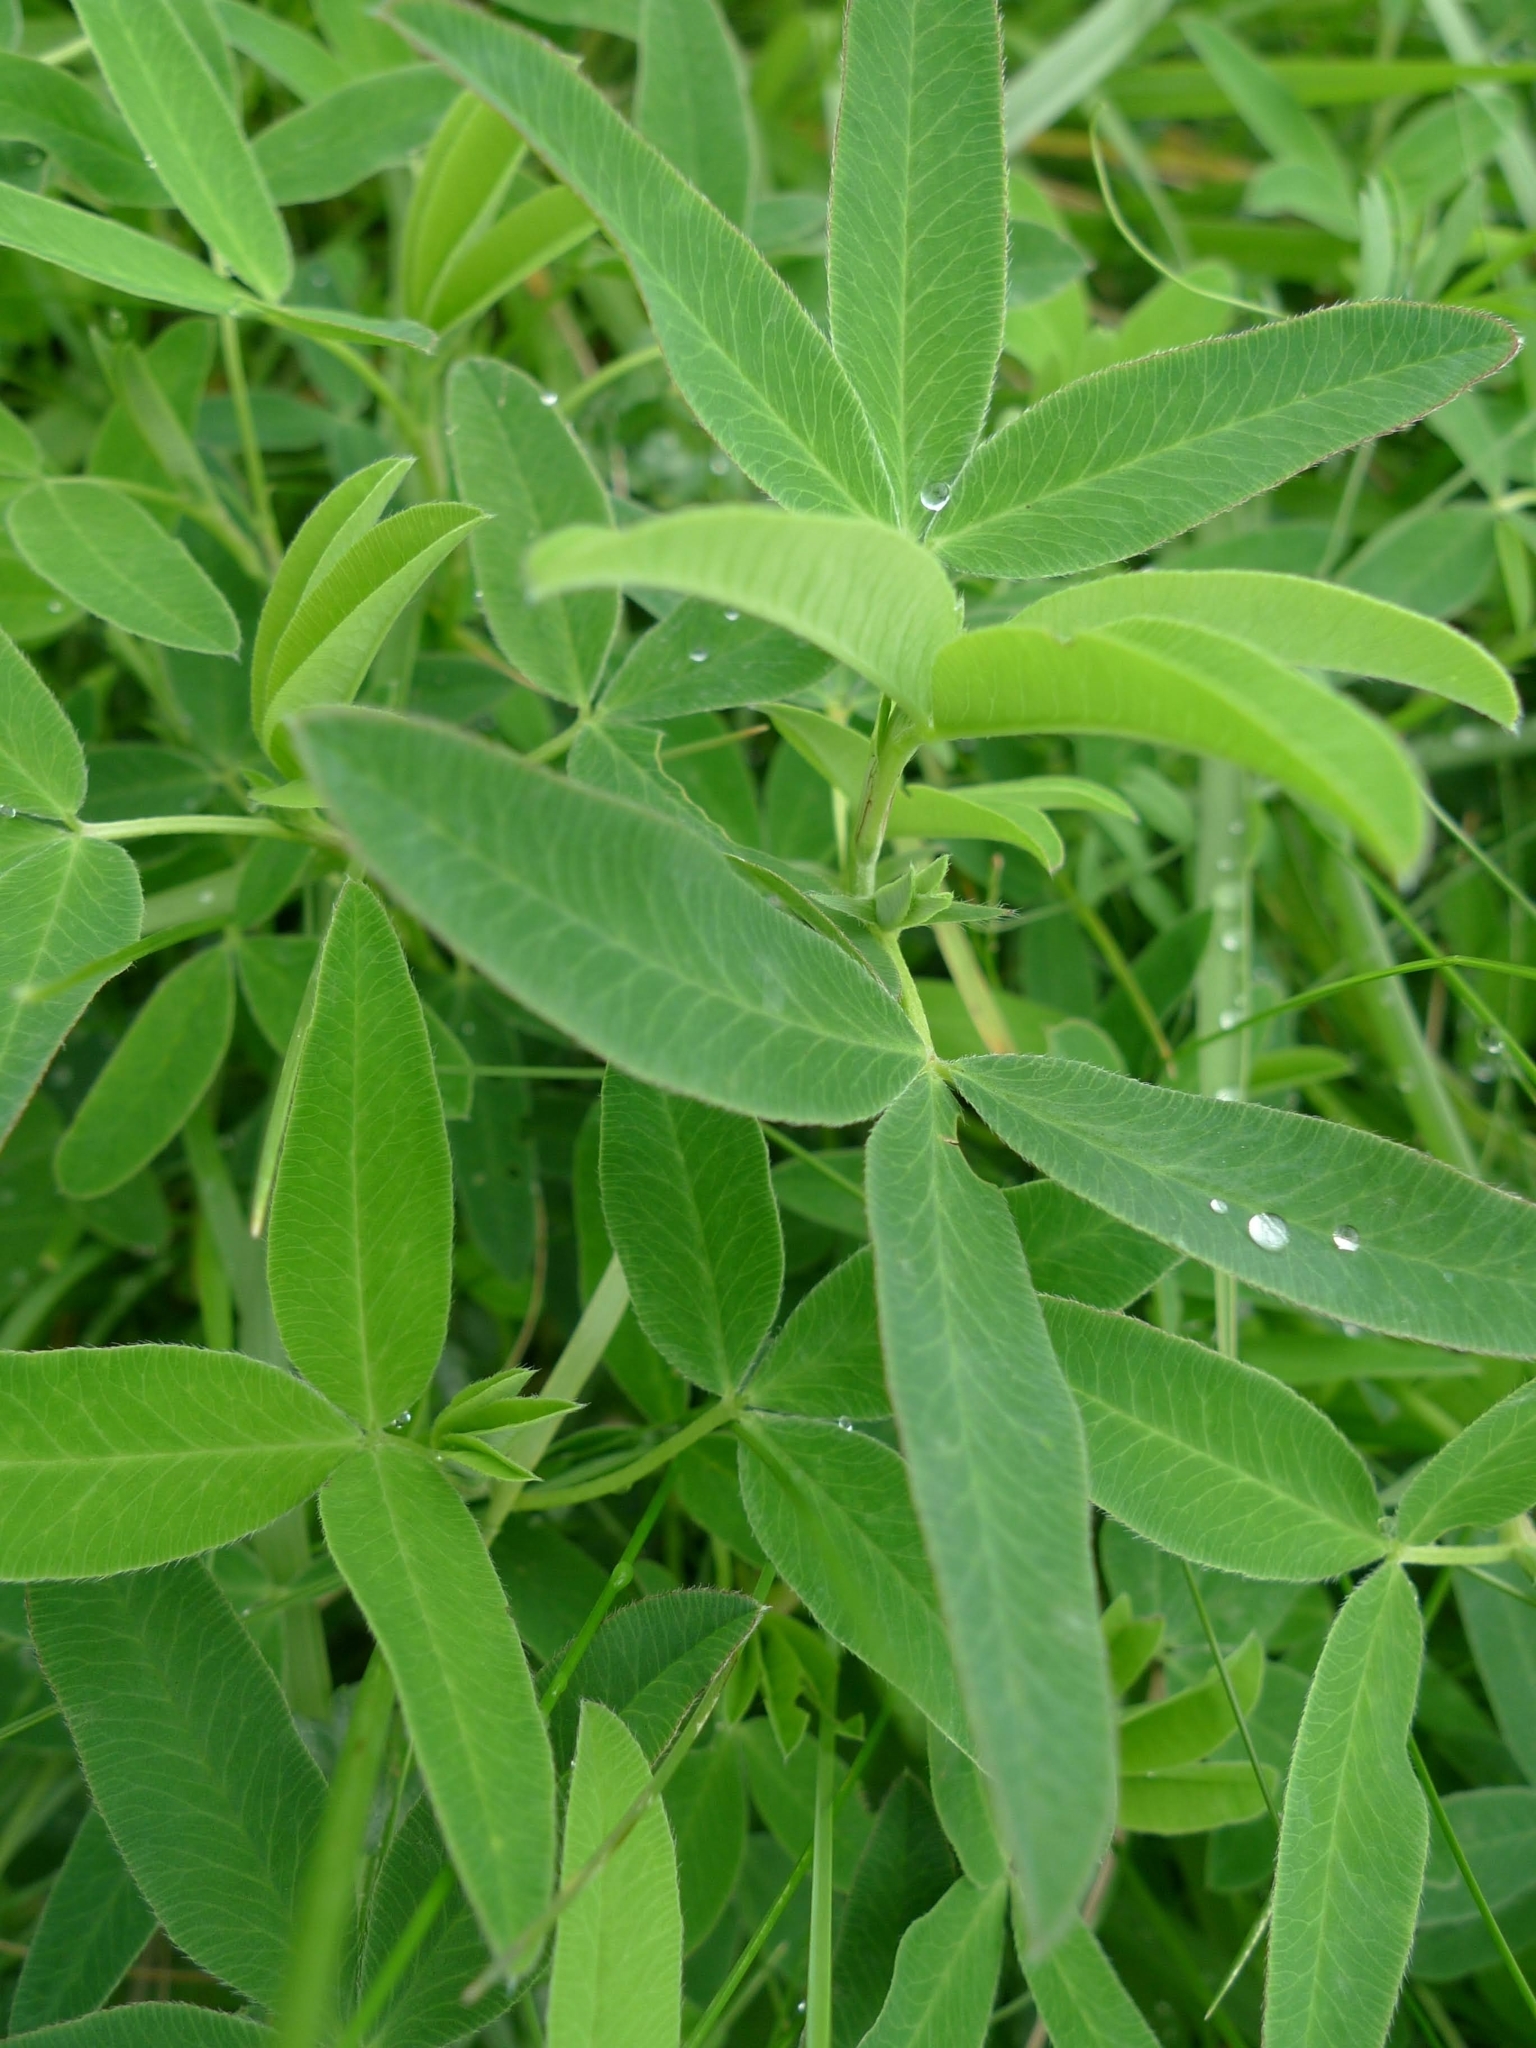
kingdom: Plantae
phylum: Tracheophyta
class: Magnoliopsida
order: Fabales
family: Fabaceae
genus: Trifolium
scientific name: Trifolium medium
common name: Zigzag clover
